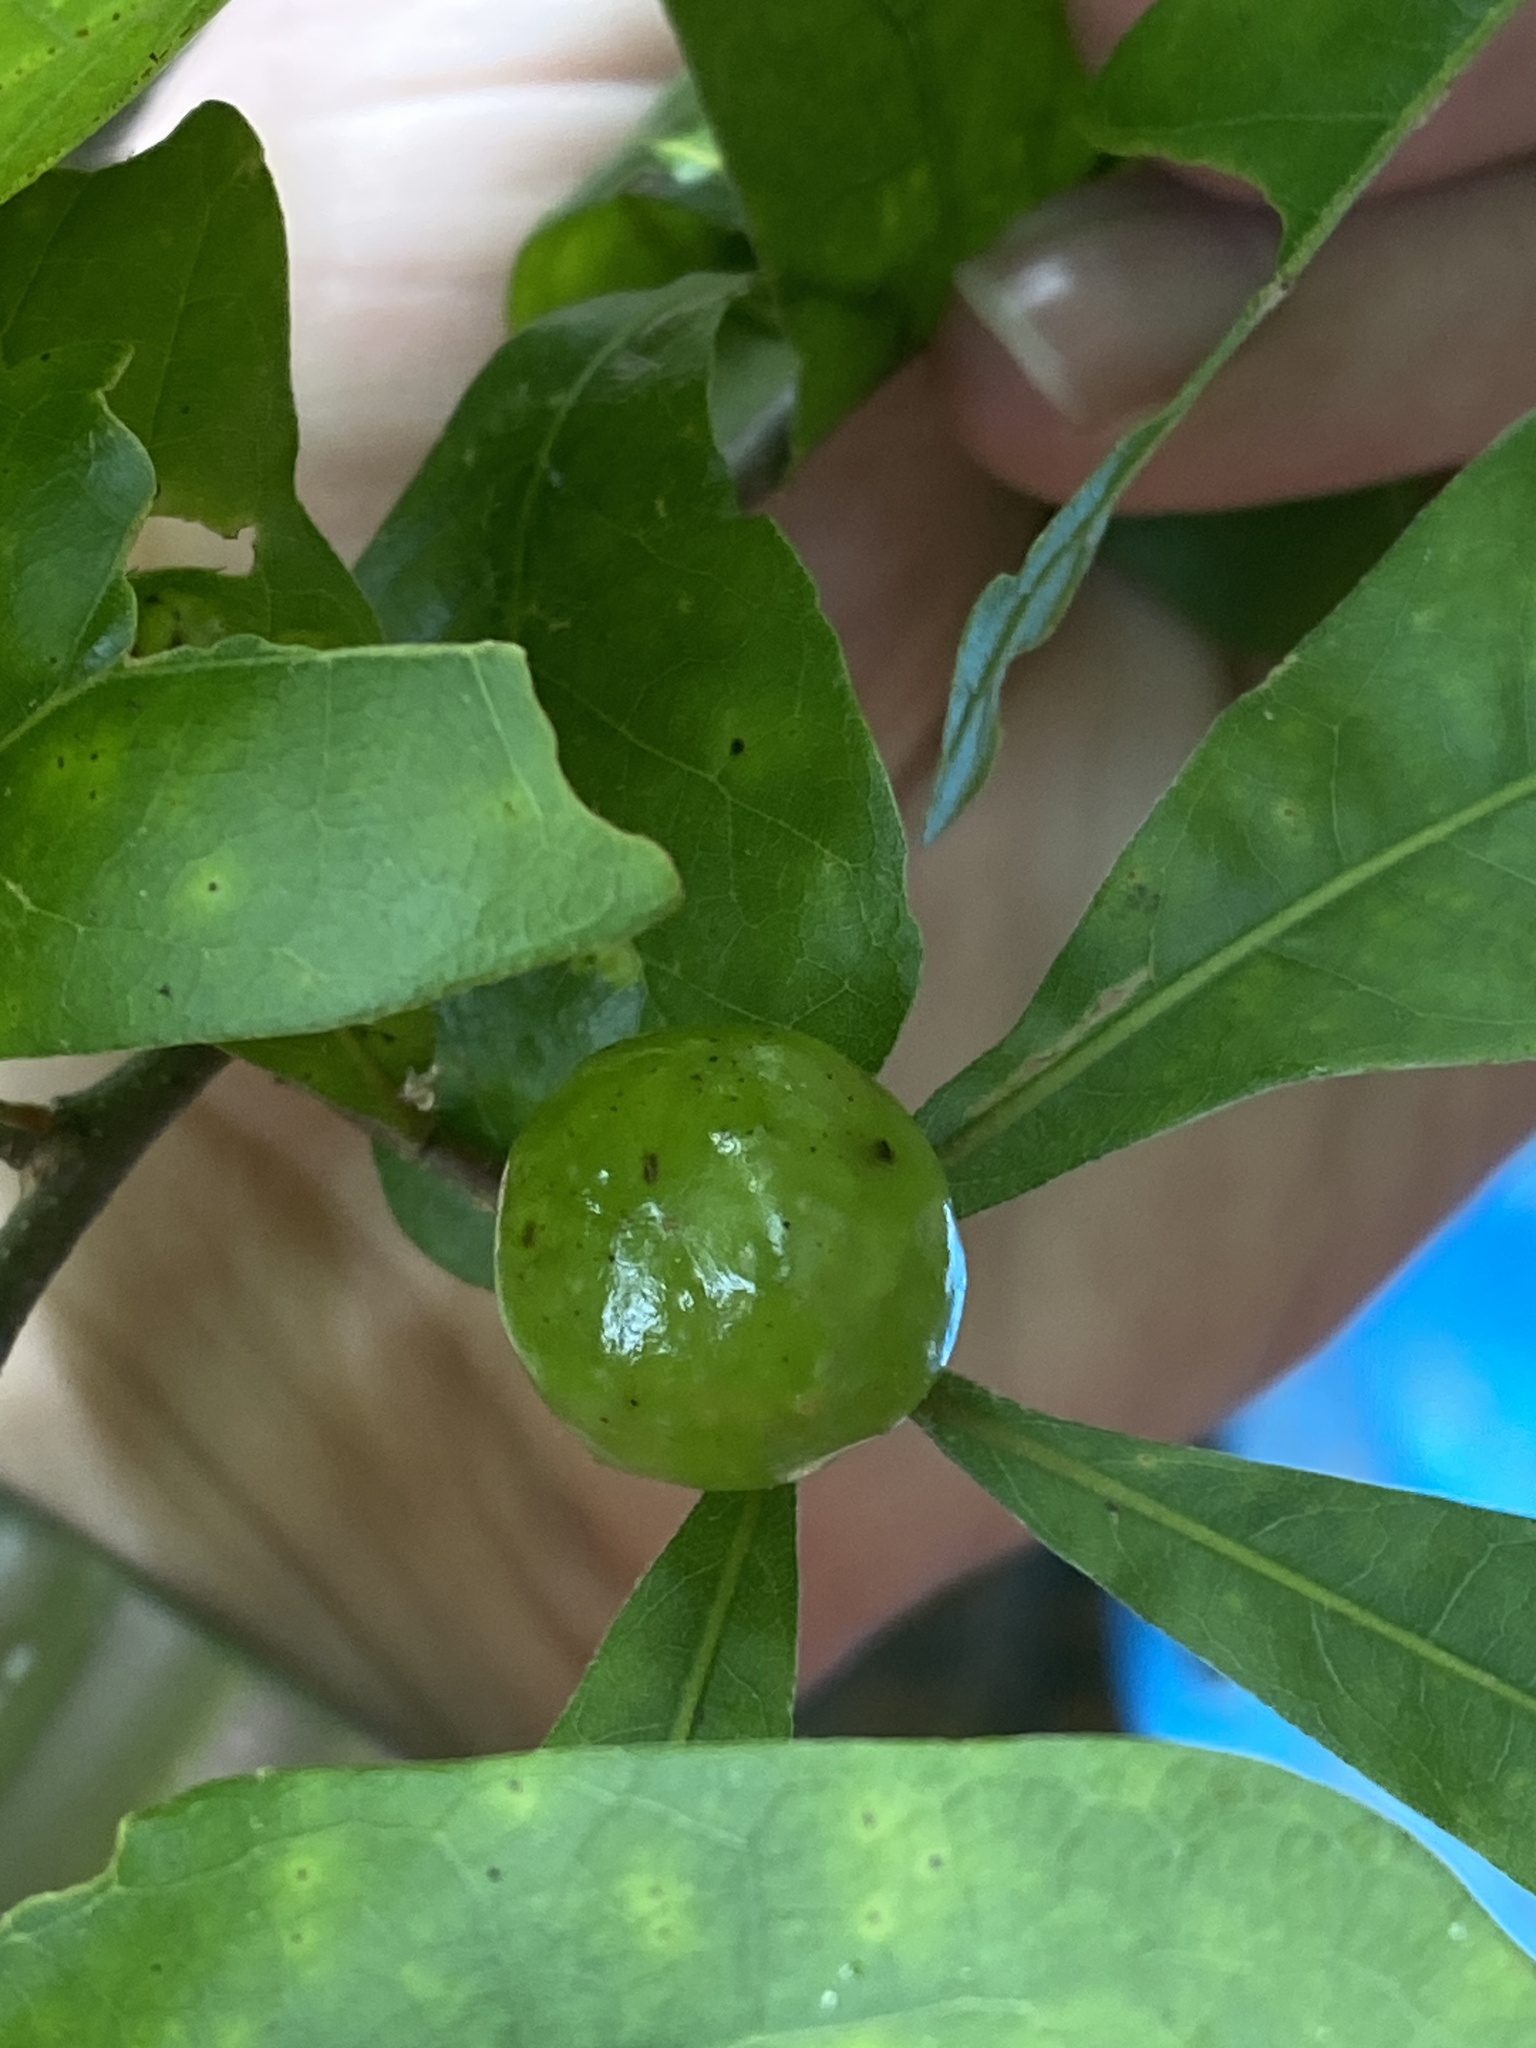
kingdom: Animalia
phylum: Arthropoda
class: Insecta
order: Hymenoptera
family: Cynipidae
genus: Amphibolips
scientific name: Amphibolips
